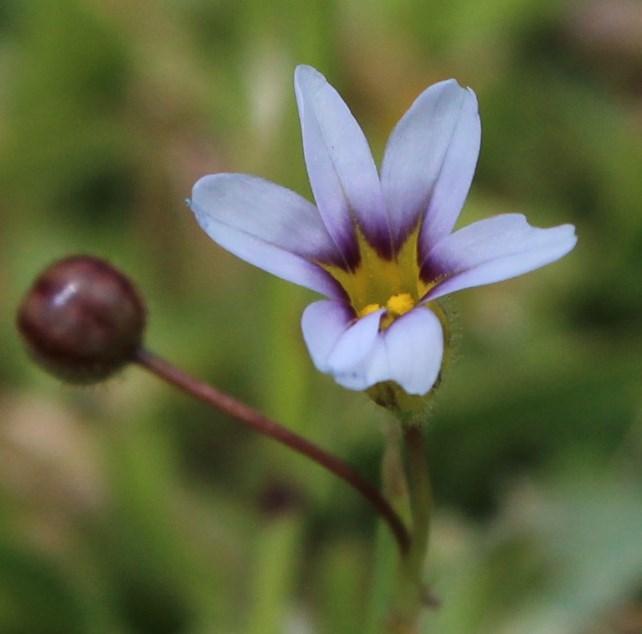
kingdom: Plantae
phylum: Tracheophyta
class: Liliopsida
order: Asparagales
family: Iridaceae
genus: Sisyrinchium
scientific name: Sisyrinchium micranthum
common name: Bermuda pigroot
